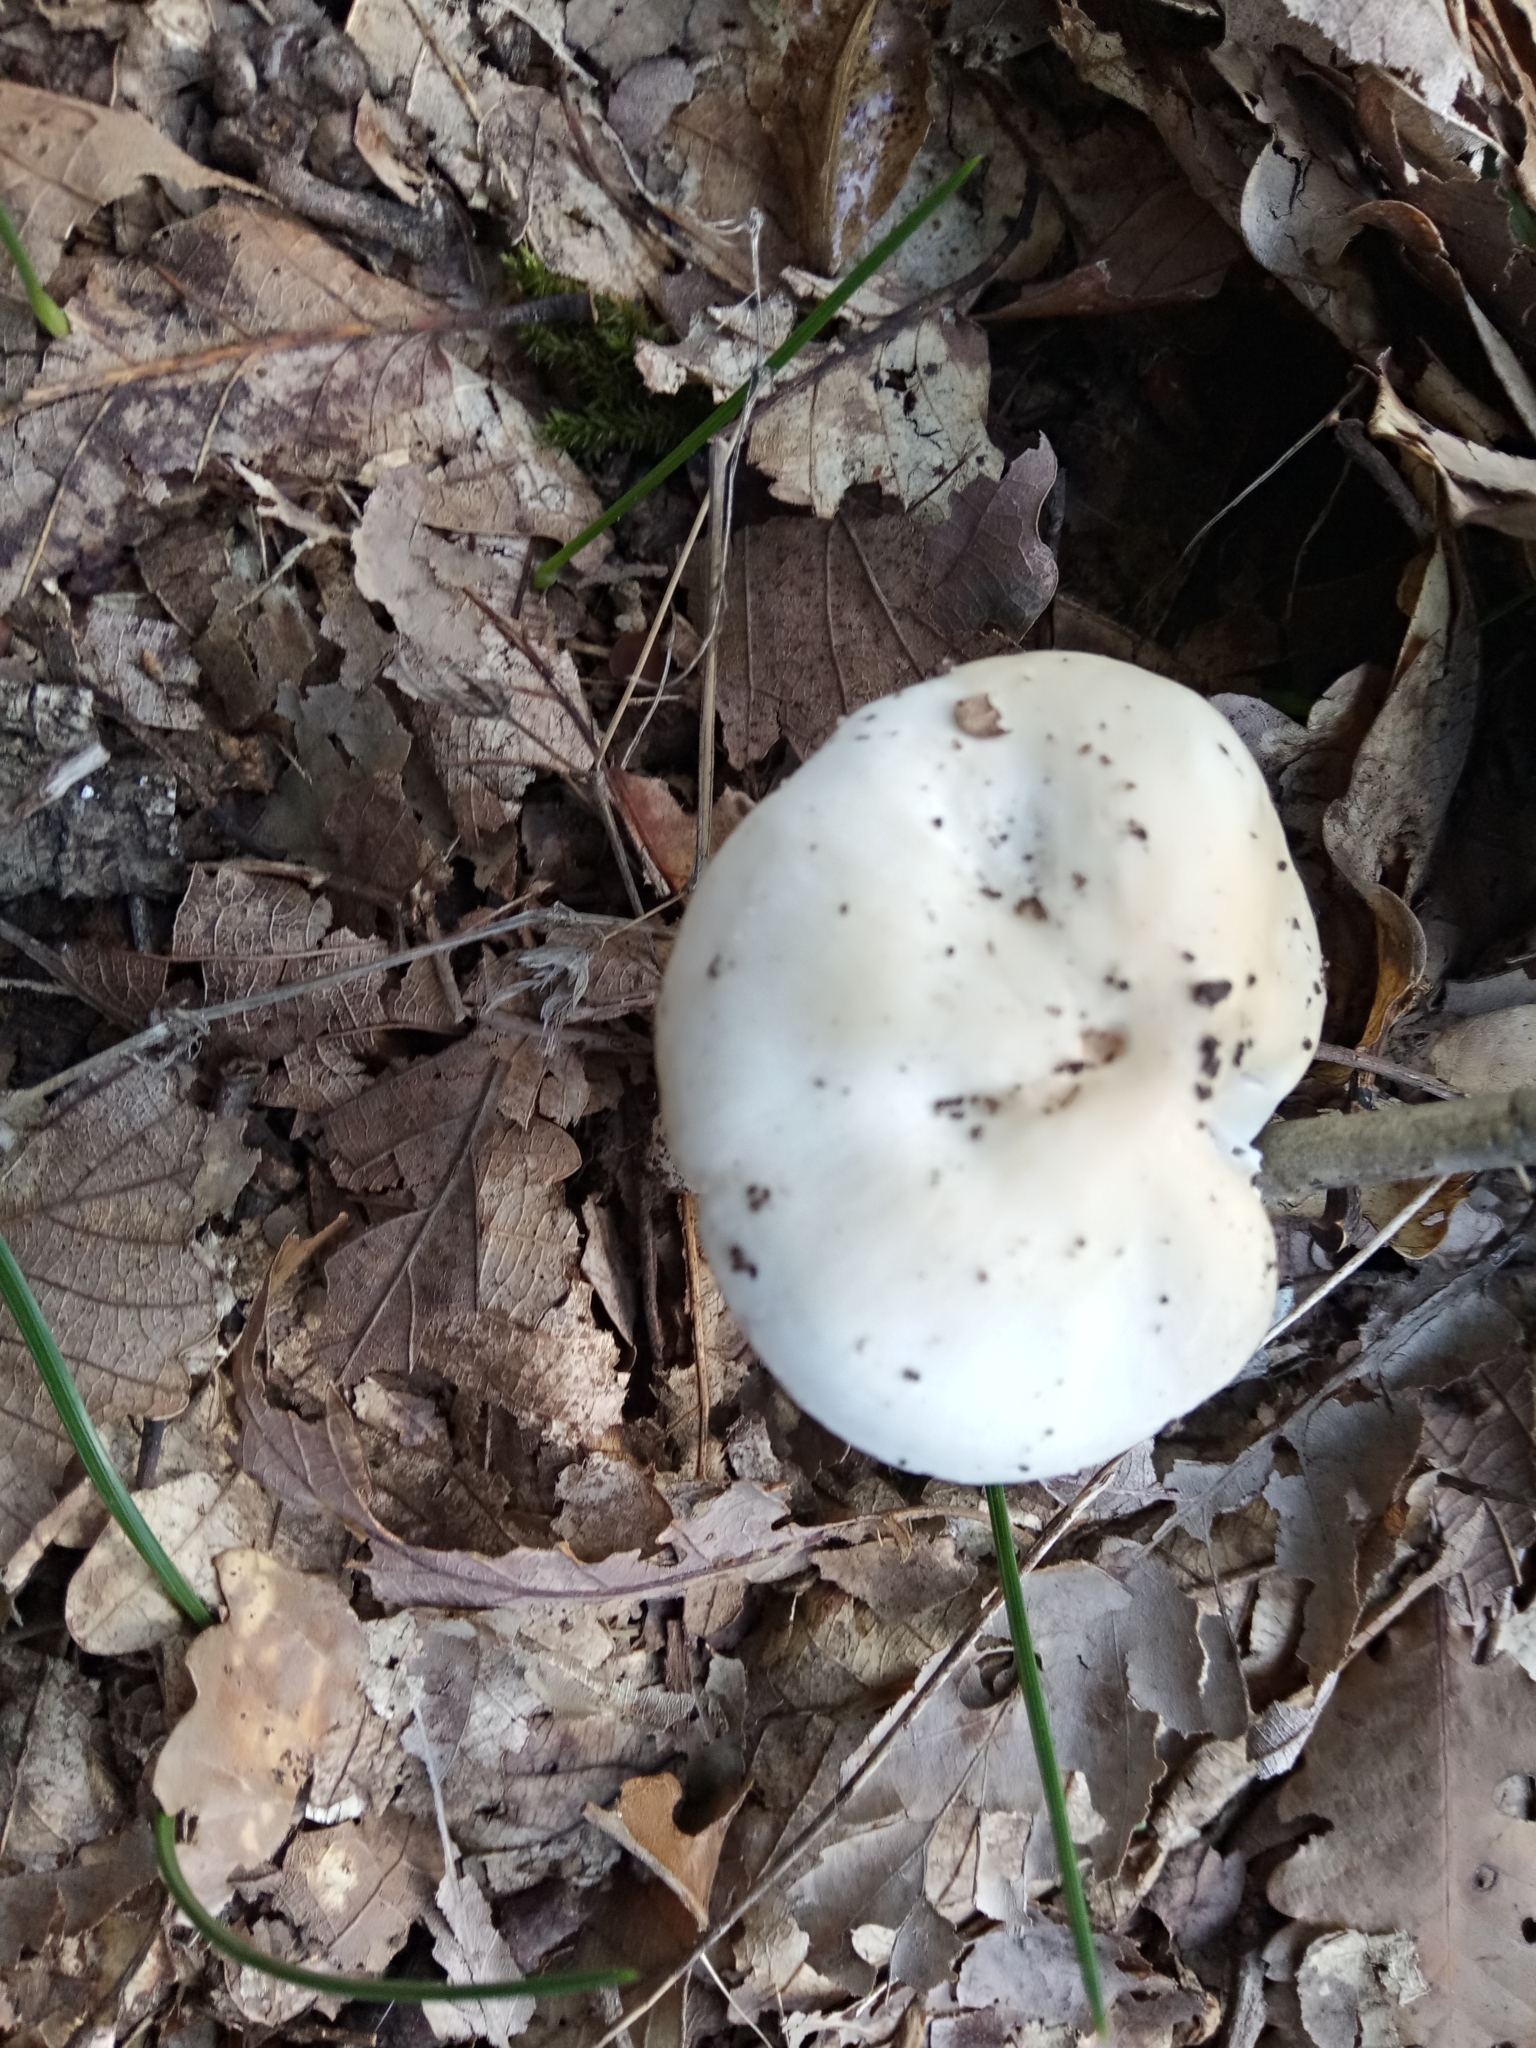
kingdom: Fungi
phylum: Basidiomycota
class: Agaricomycetes
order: Agaricales
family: Hygrophoraceae
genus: Hygrophorus
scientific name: Hygrophorus cossus
